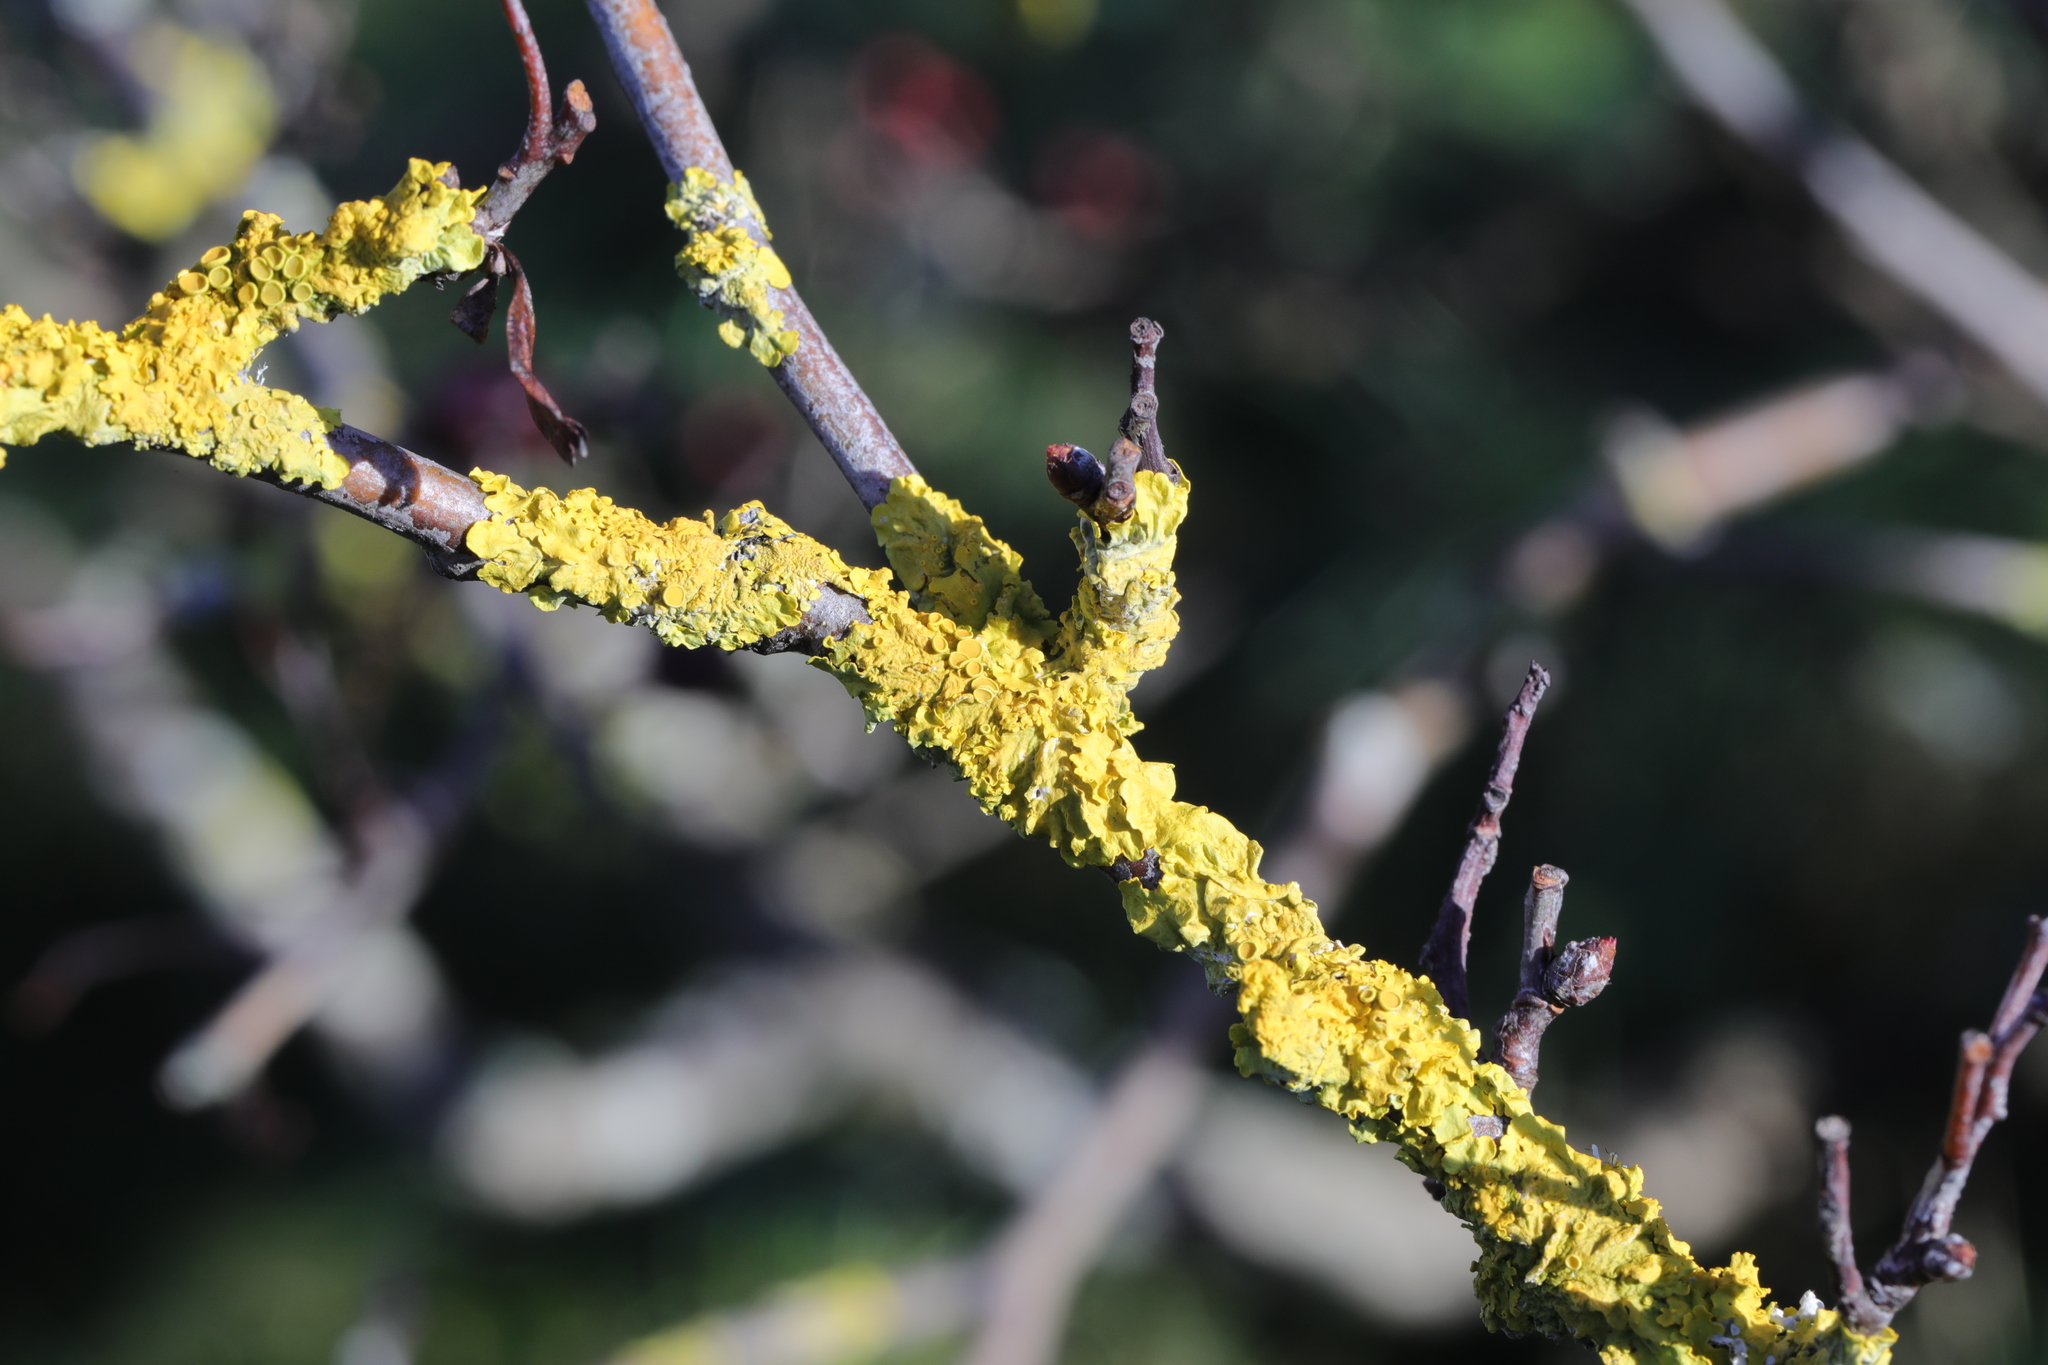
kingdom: Fungi
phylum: Ascomycota
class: Lecanoromycetes
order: Teloschistales
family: Teloschistaceae
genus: Xanthoria
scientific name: Xanthoria parietina
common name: Common orange lichen
